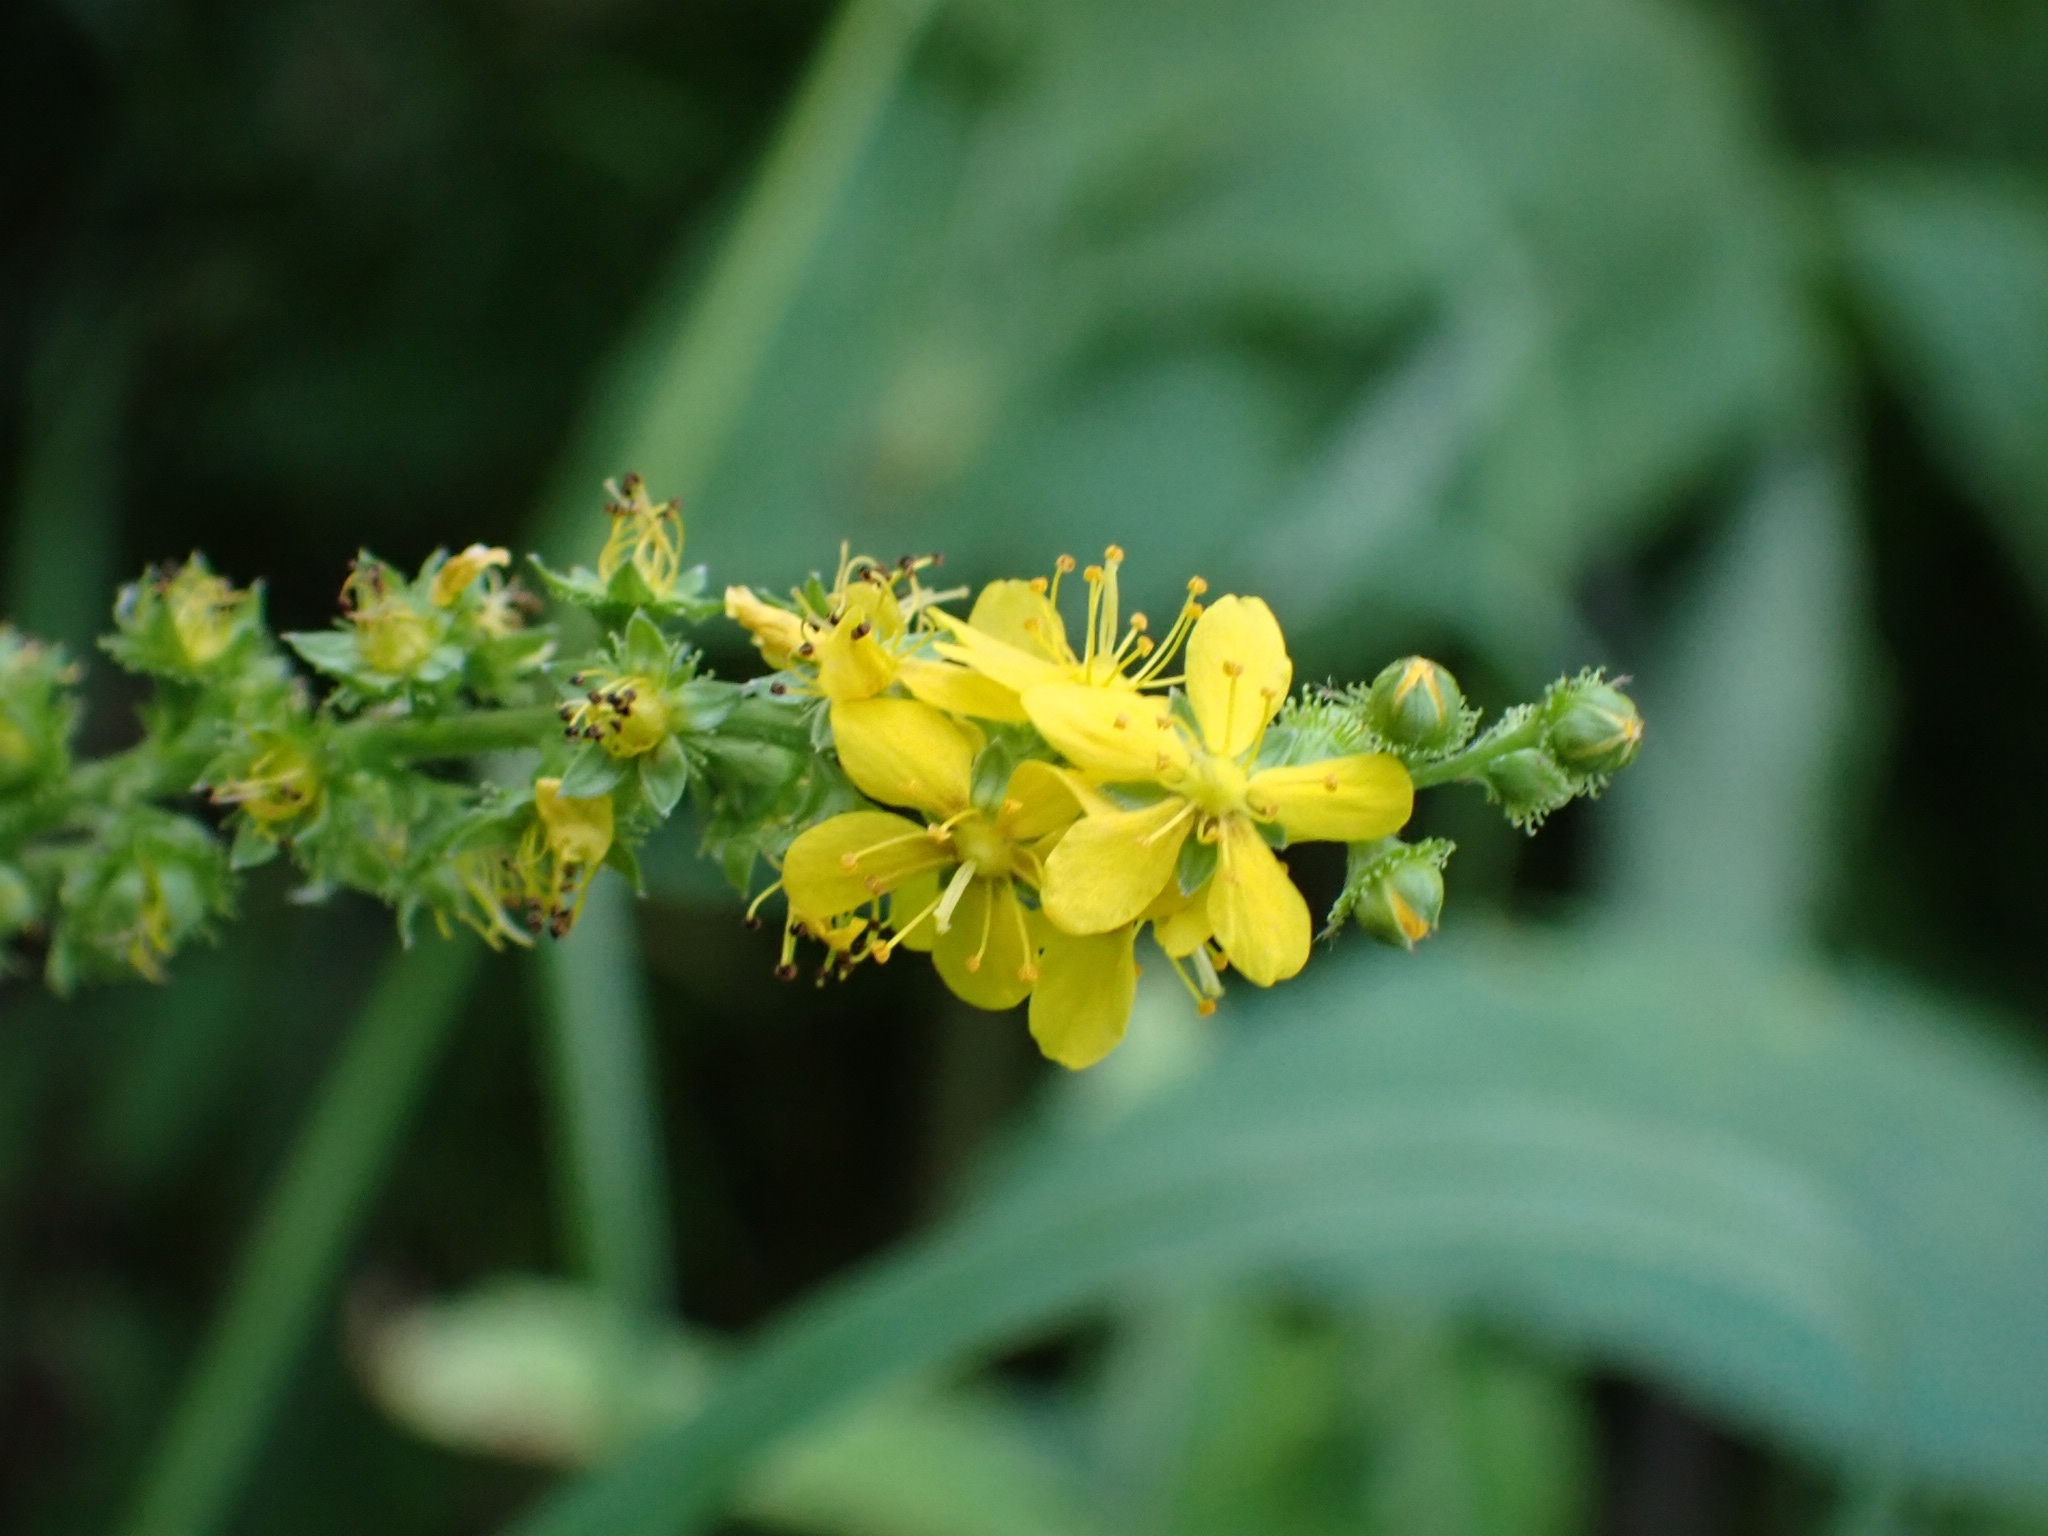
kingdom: Plantae
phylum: Tracheophyta
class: Magnoliopsida
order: Rosales
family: Rosaceae
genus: Agrimonia
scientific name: Agrimonia pilosa
